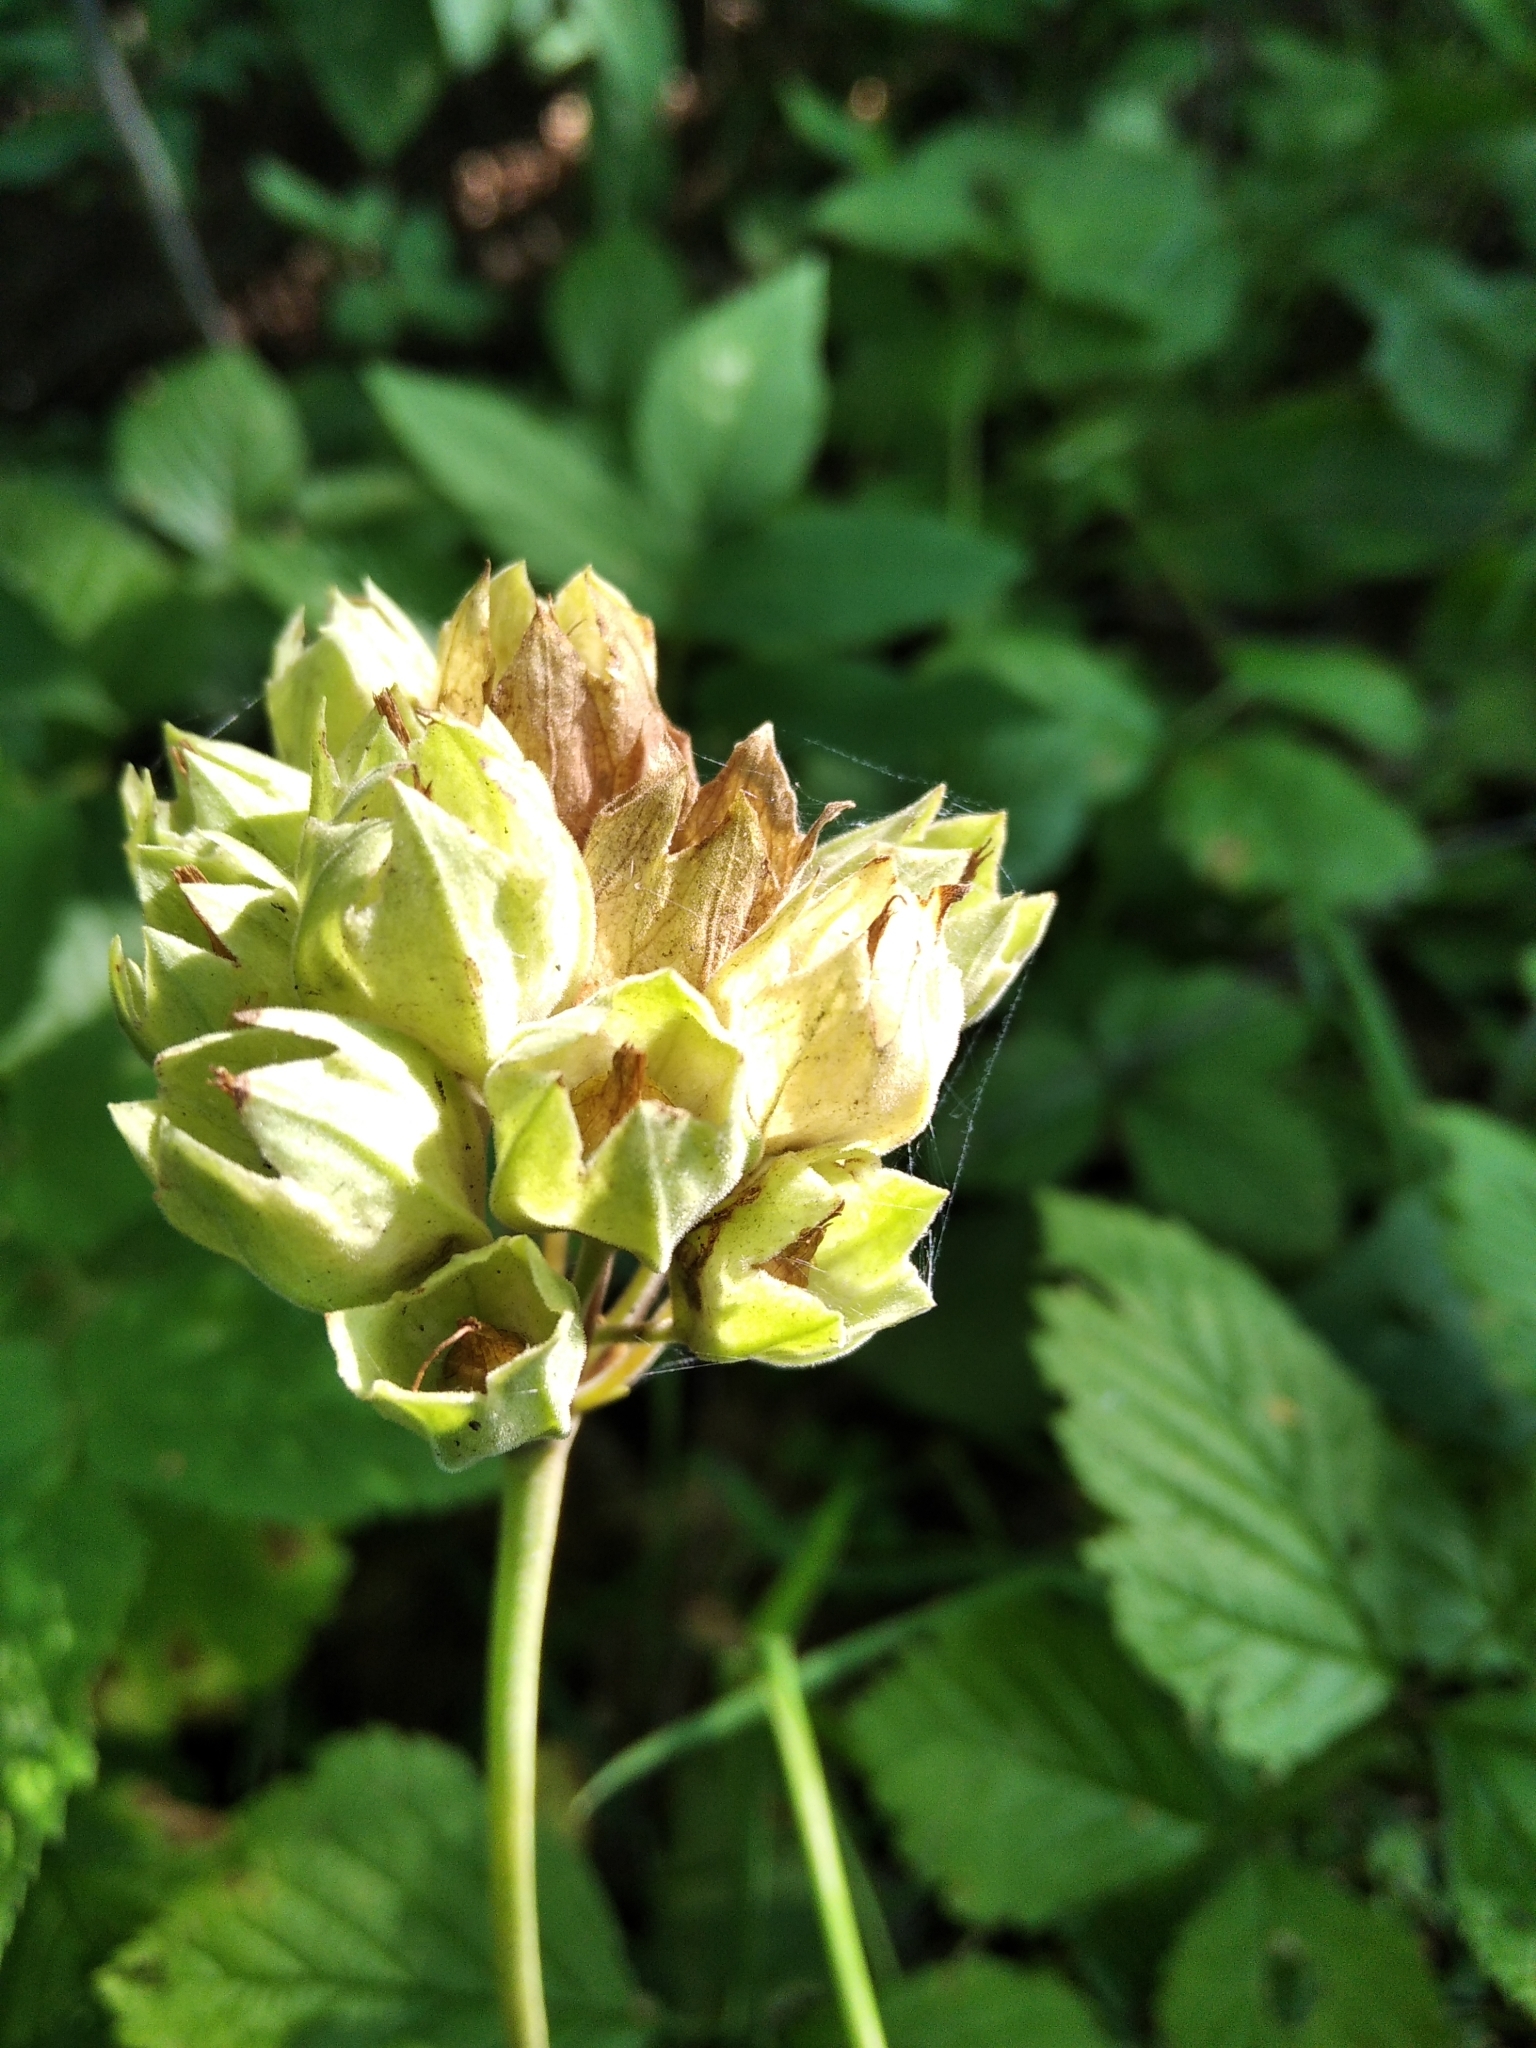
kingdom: Plantae
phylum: Tracheophyta
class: Magnoliopsida
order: Ericales
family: Primulaceae
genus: Primula
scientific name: Primula veris
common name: Cowslip
